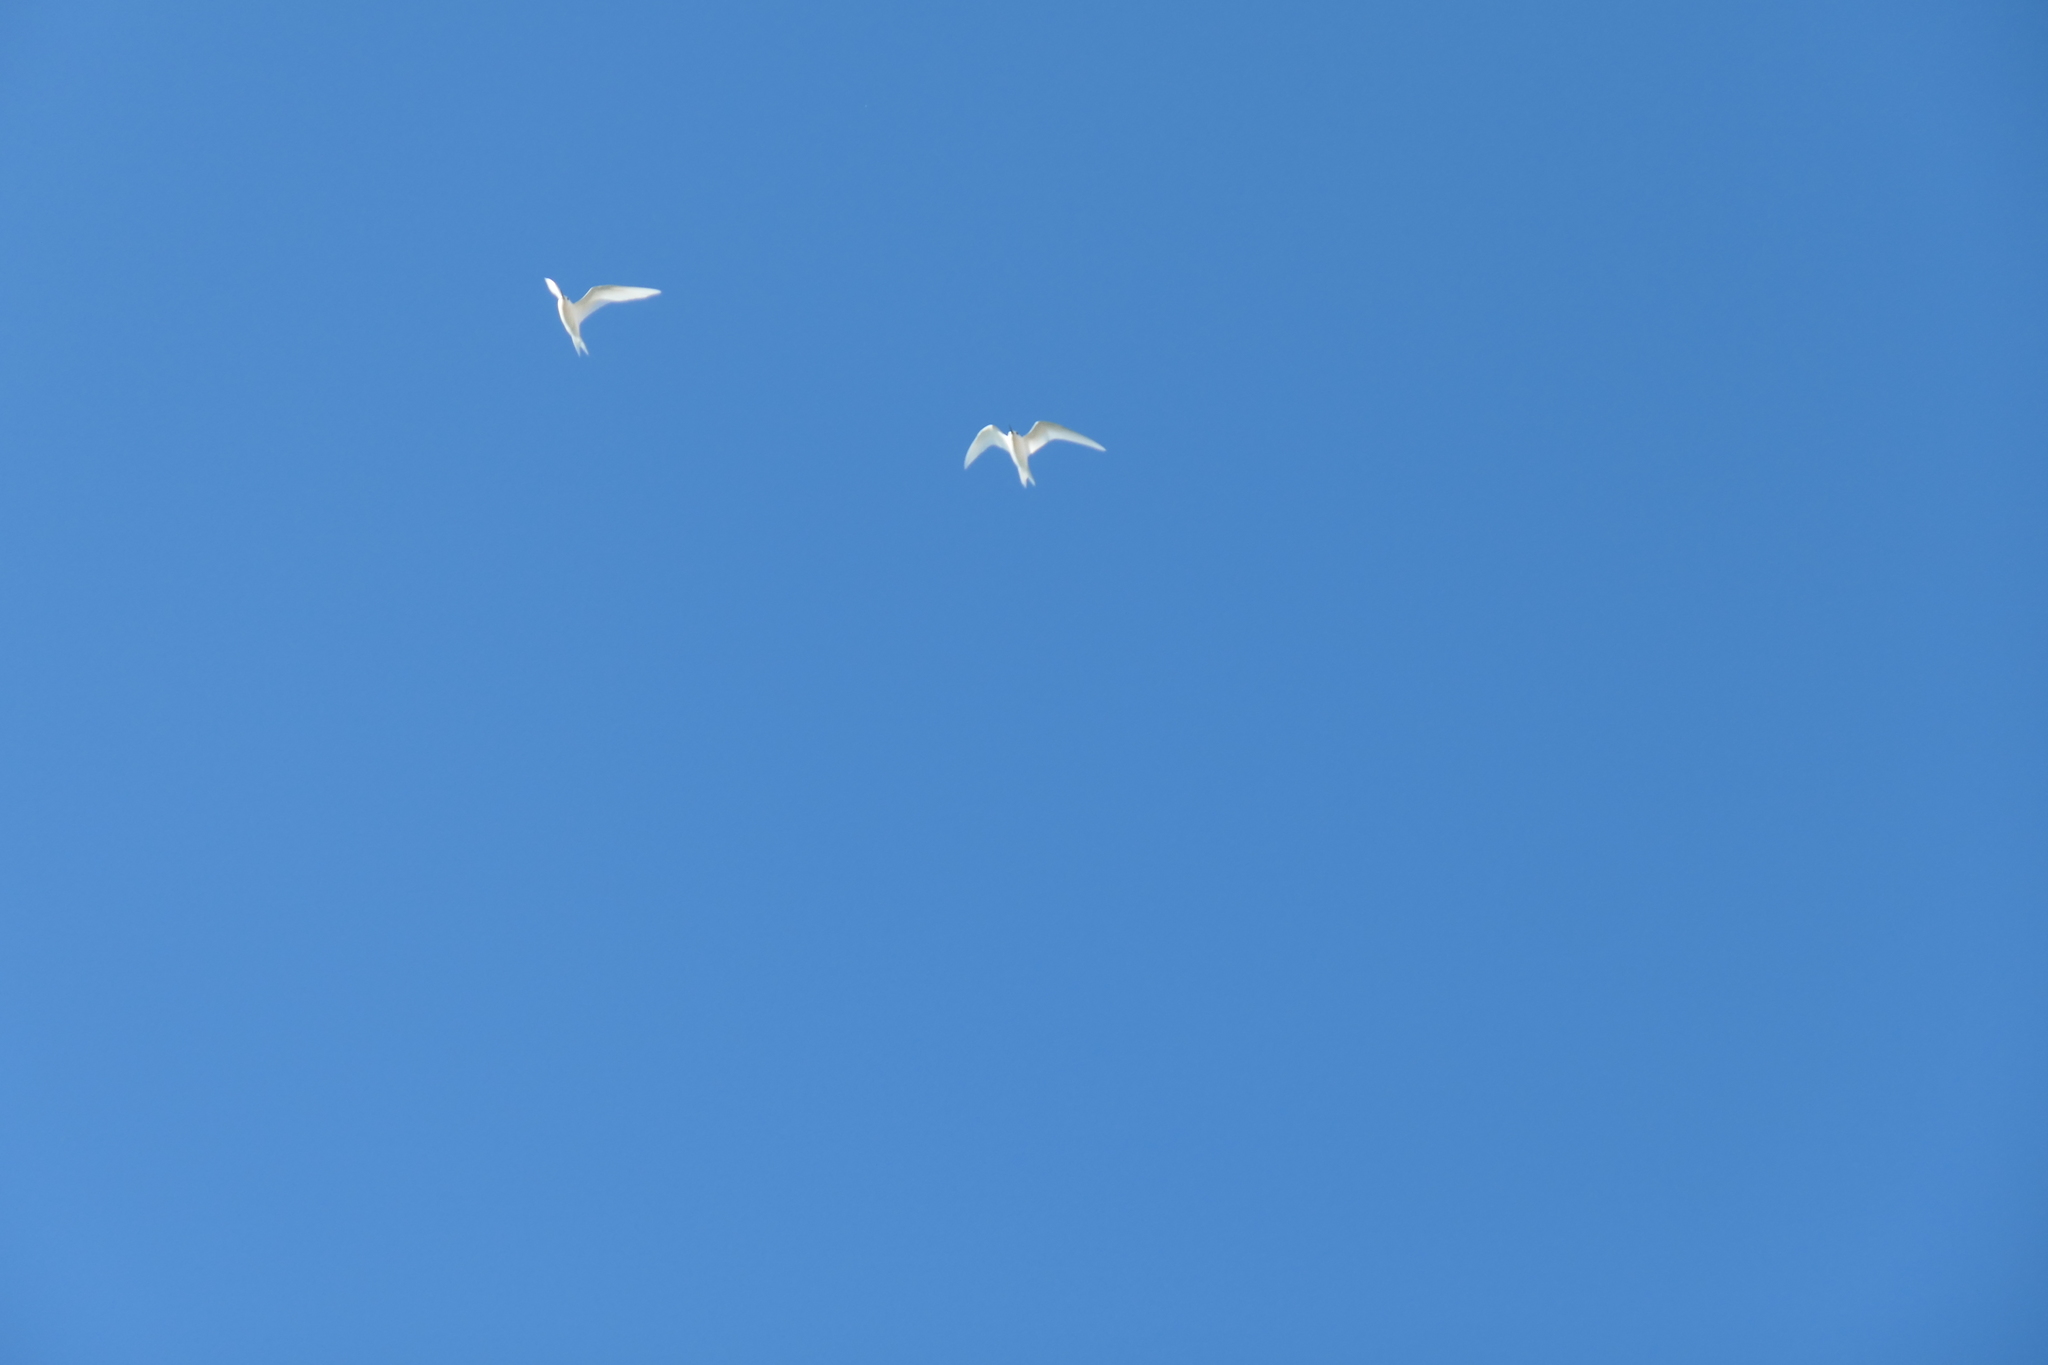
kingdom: Animalia
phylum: Chordata
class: Aves
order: Charadriiformes
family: Laridae
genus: Gygis
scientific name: Gygis alba
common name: White tern
